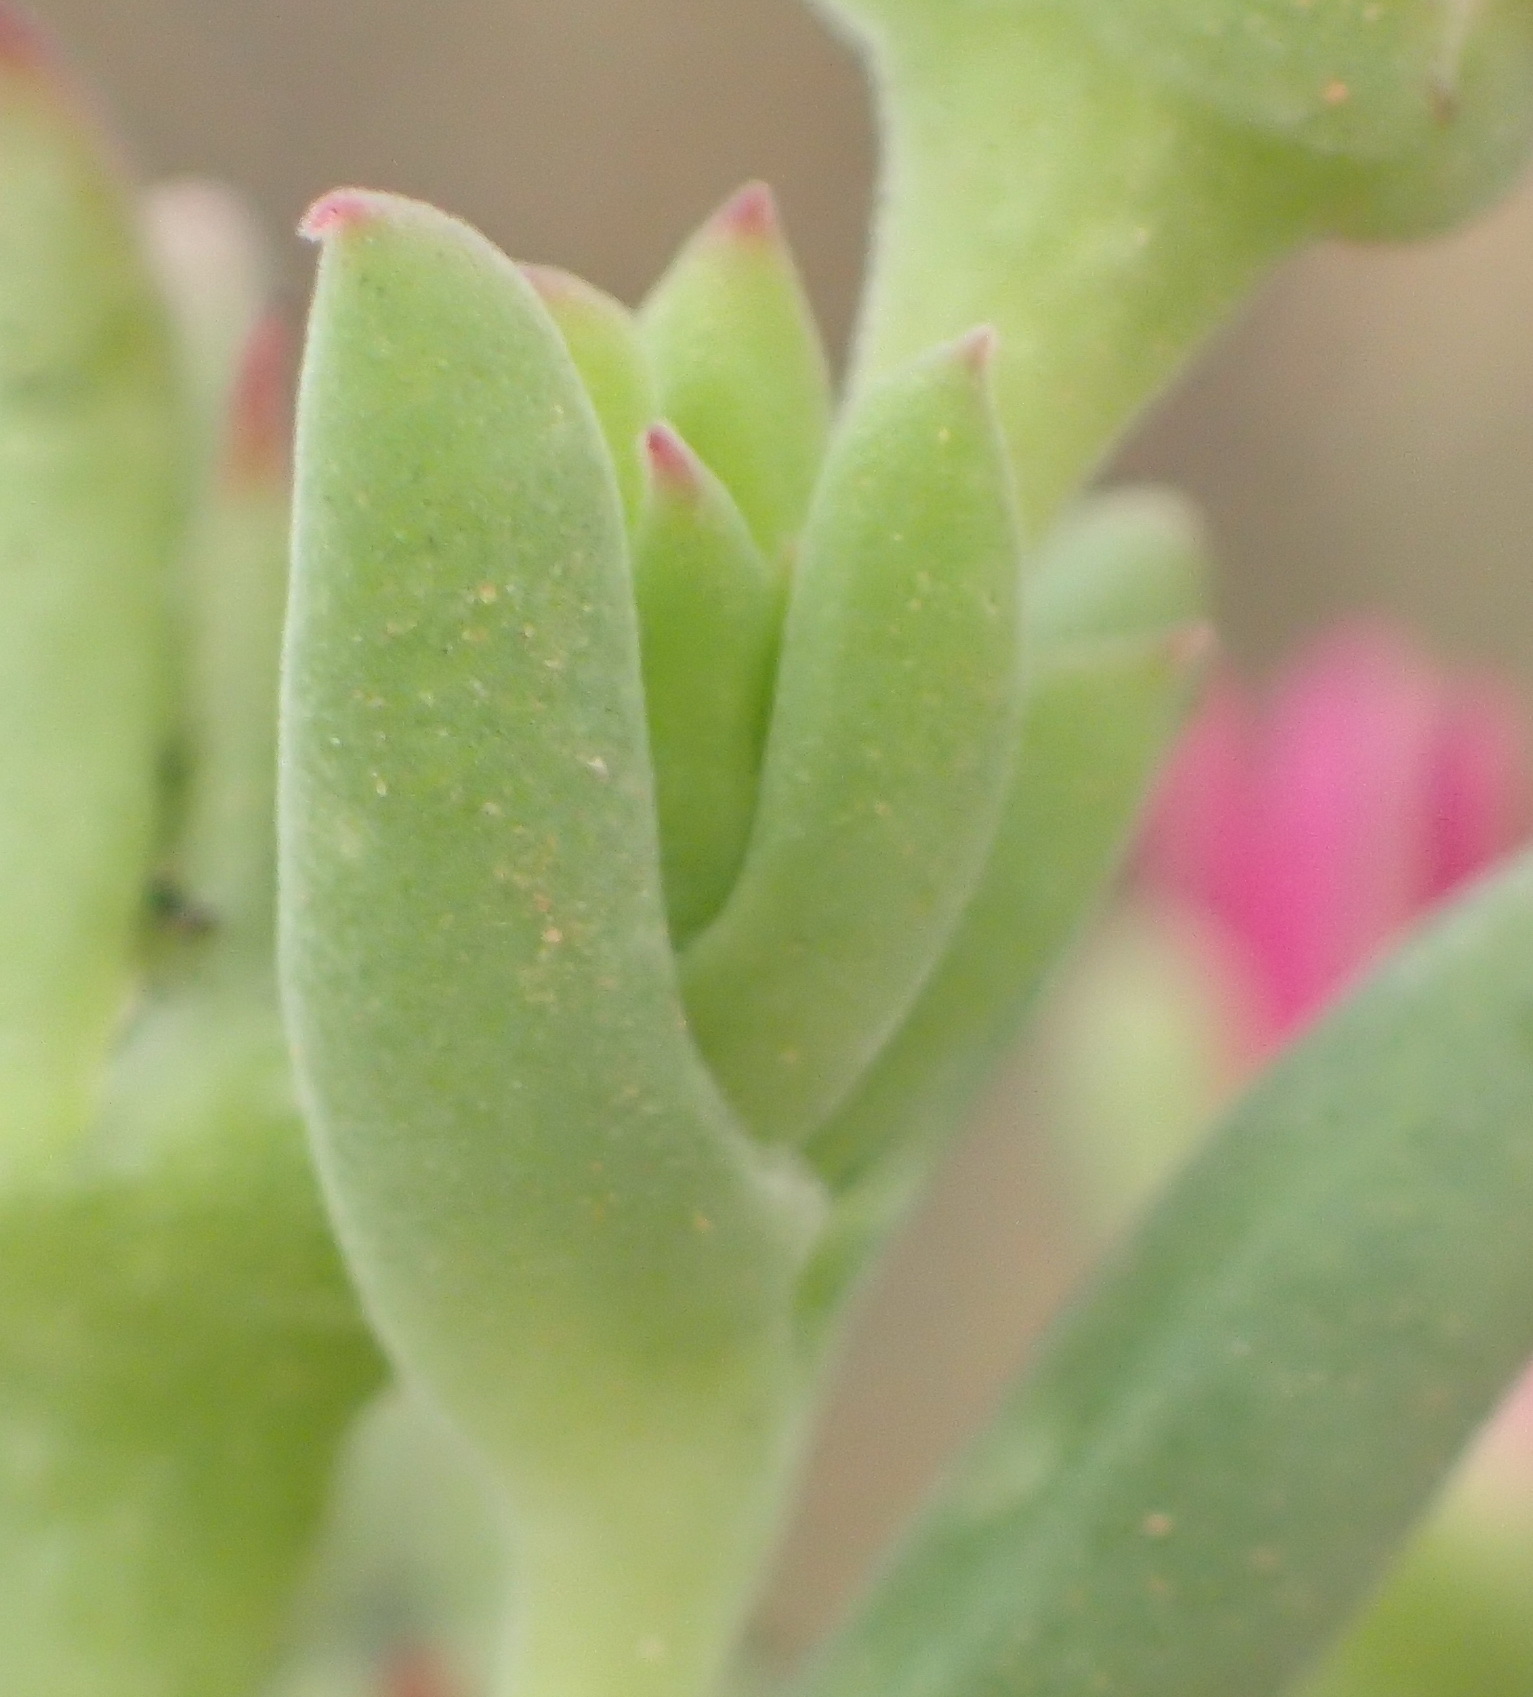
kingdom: Plantae
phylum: Tracheophyta
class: Magnoliopsida
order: Caryophyllales
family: Aizoaceae
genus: Delosperma
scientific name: Delosperma multiflorum
